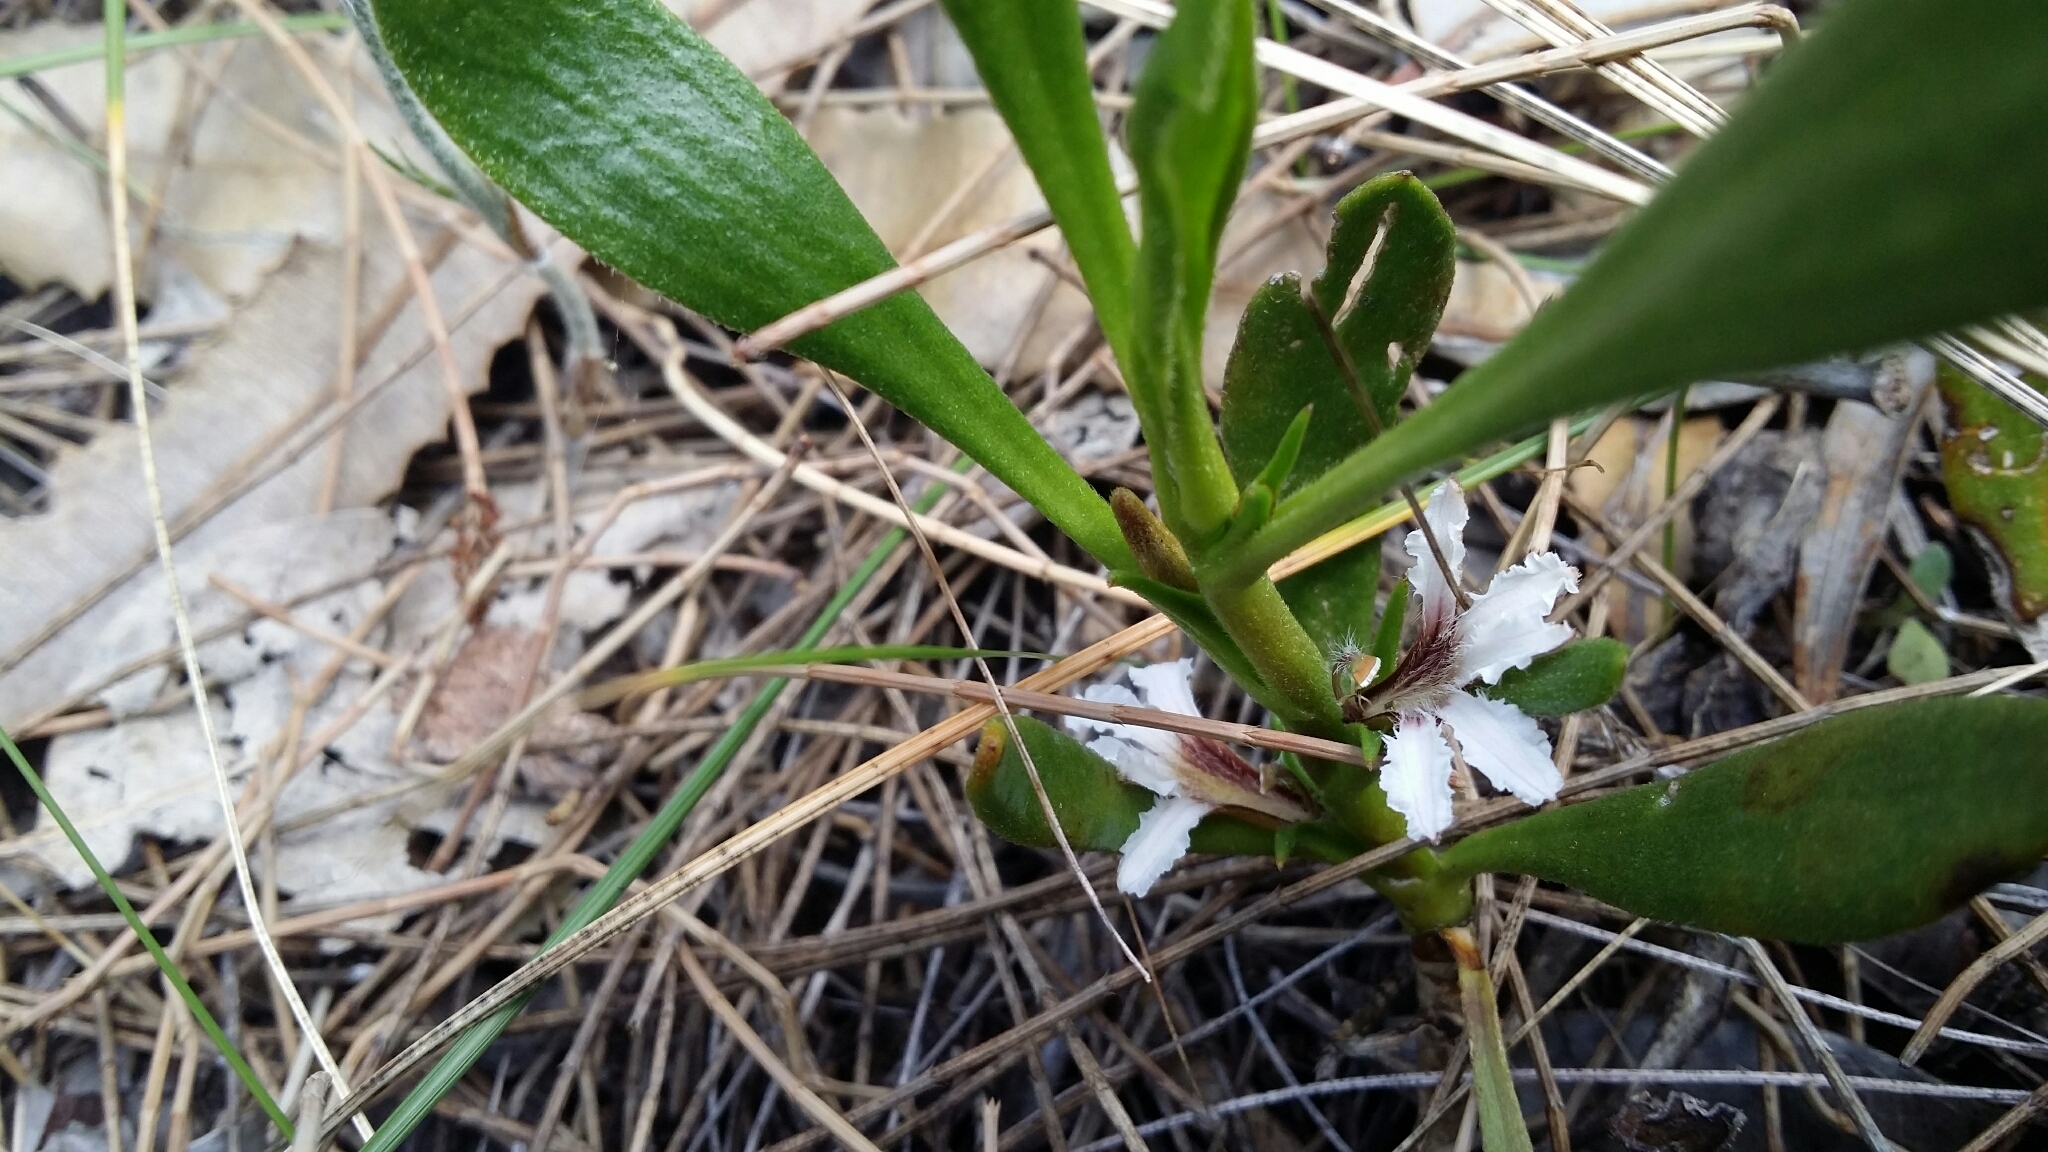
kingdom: Plantae
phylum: Tracheophyta
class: Magnoliopsida
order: Asterales
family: Goodeniaceae
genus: Scaevola
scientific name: Scaevola repens
